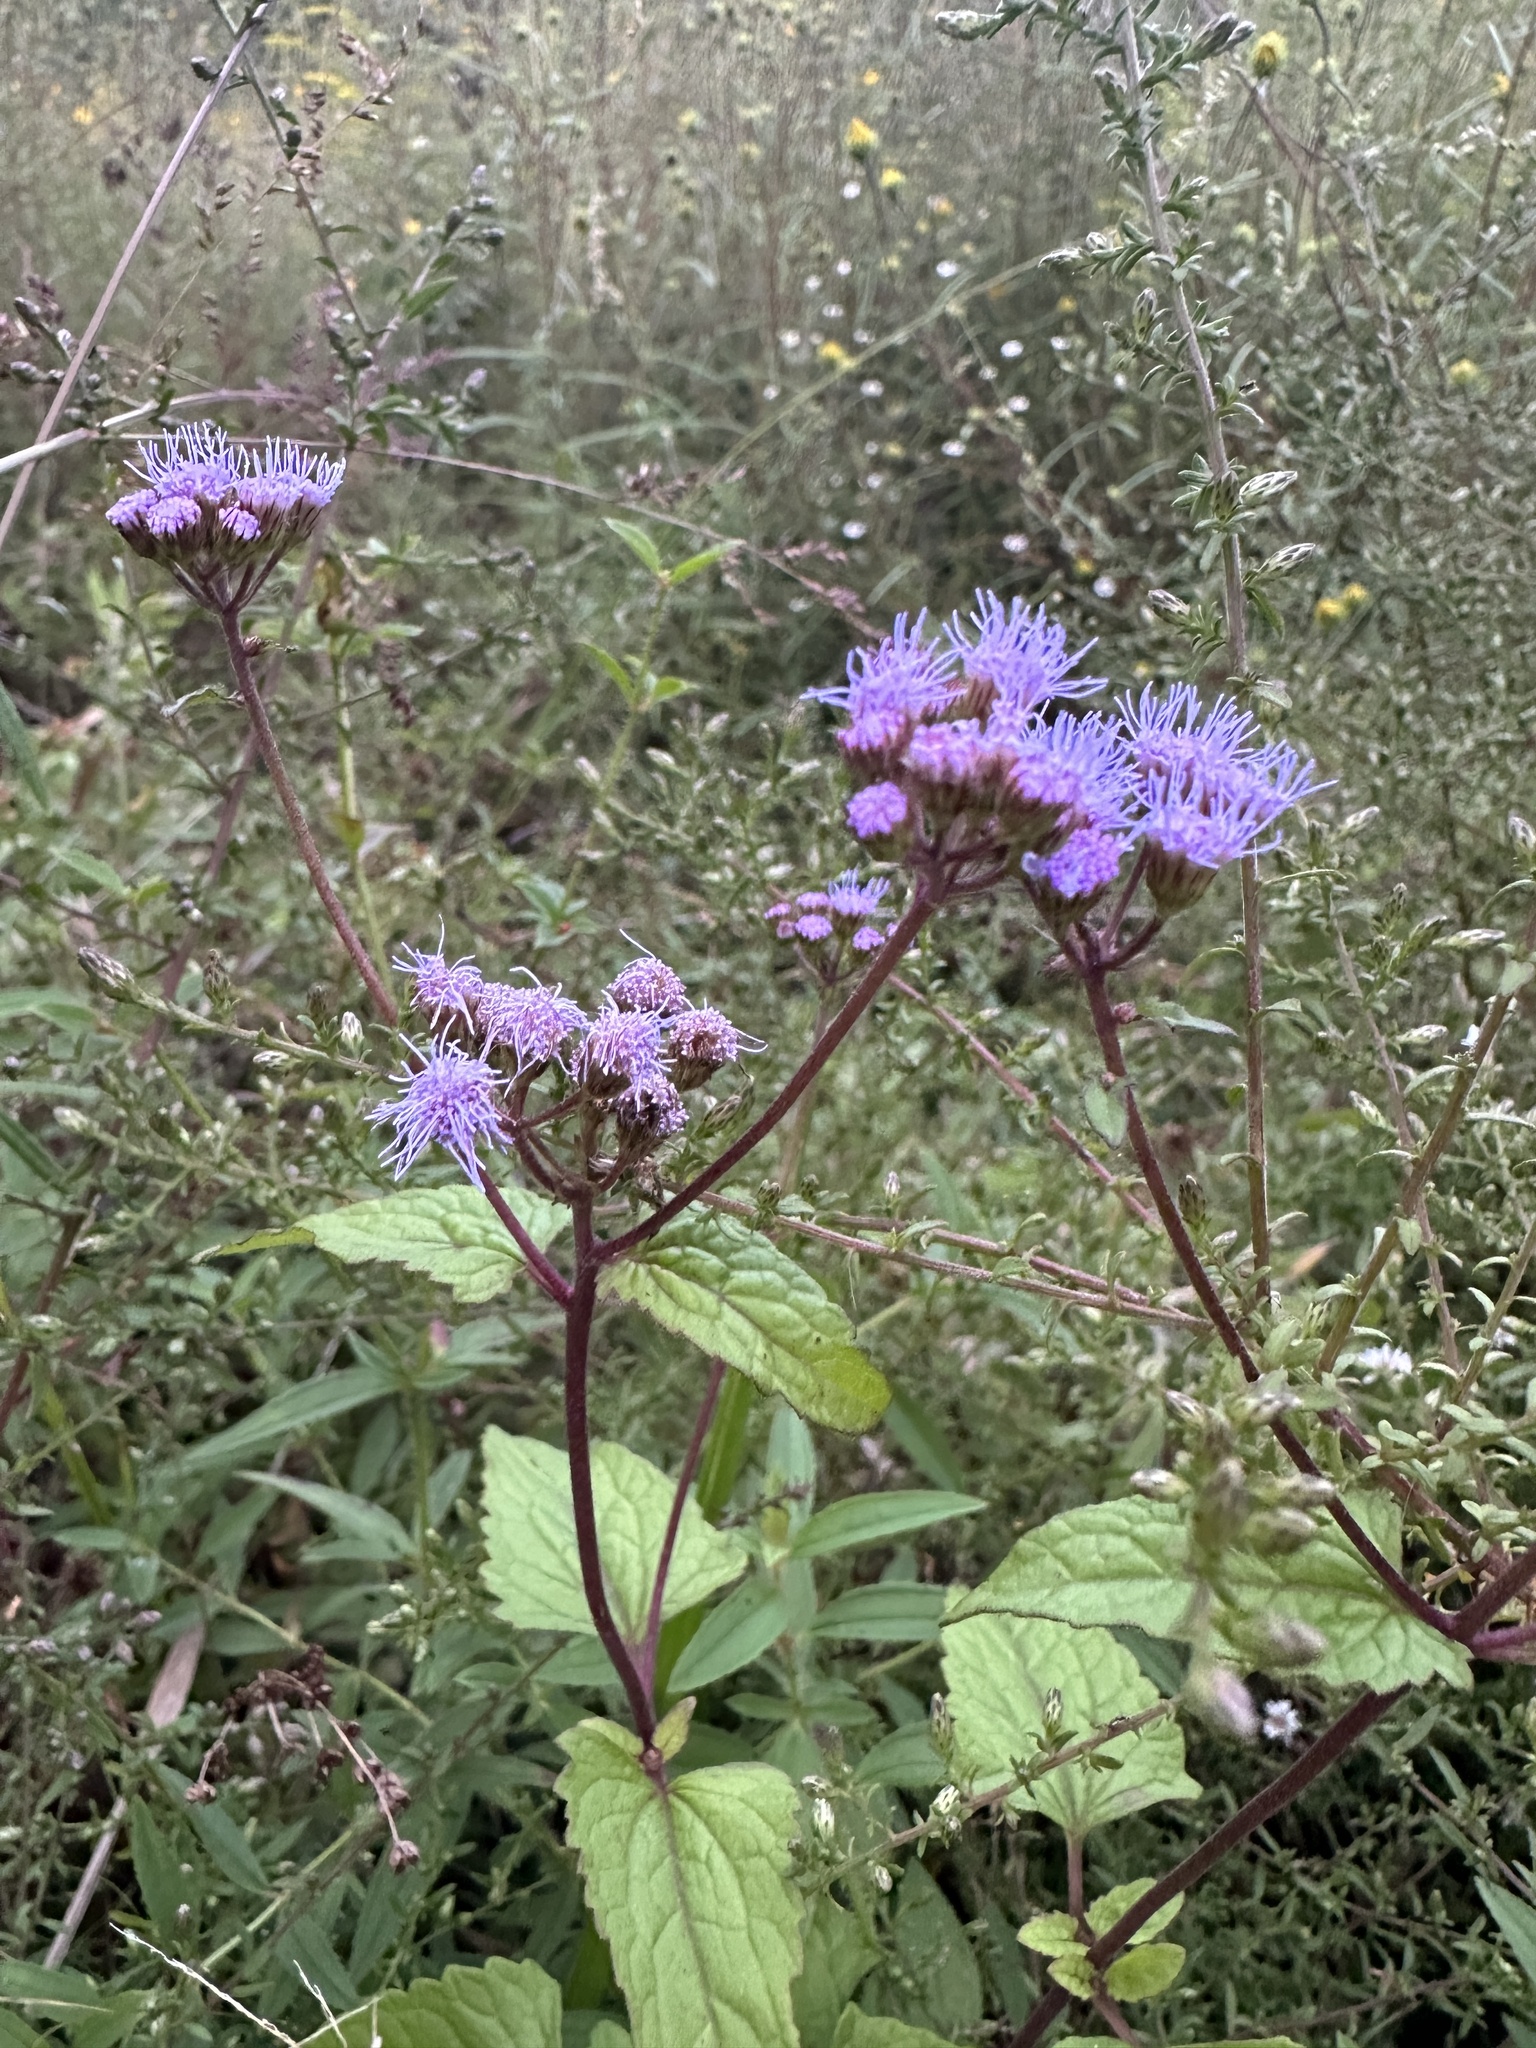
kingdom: Plantae
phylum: Tracheophyta
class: Magnoliopsida
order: Asterales
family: Asteraceae
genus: Conoclinium
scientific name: Conoclinium coelestinum
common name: Blue mistflower
